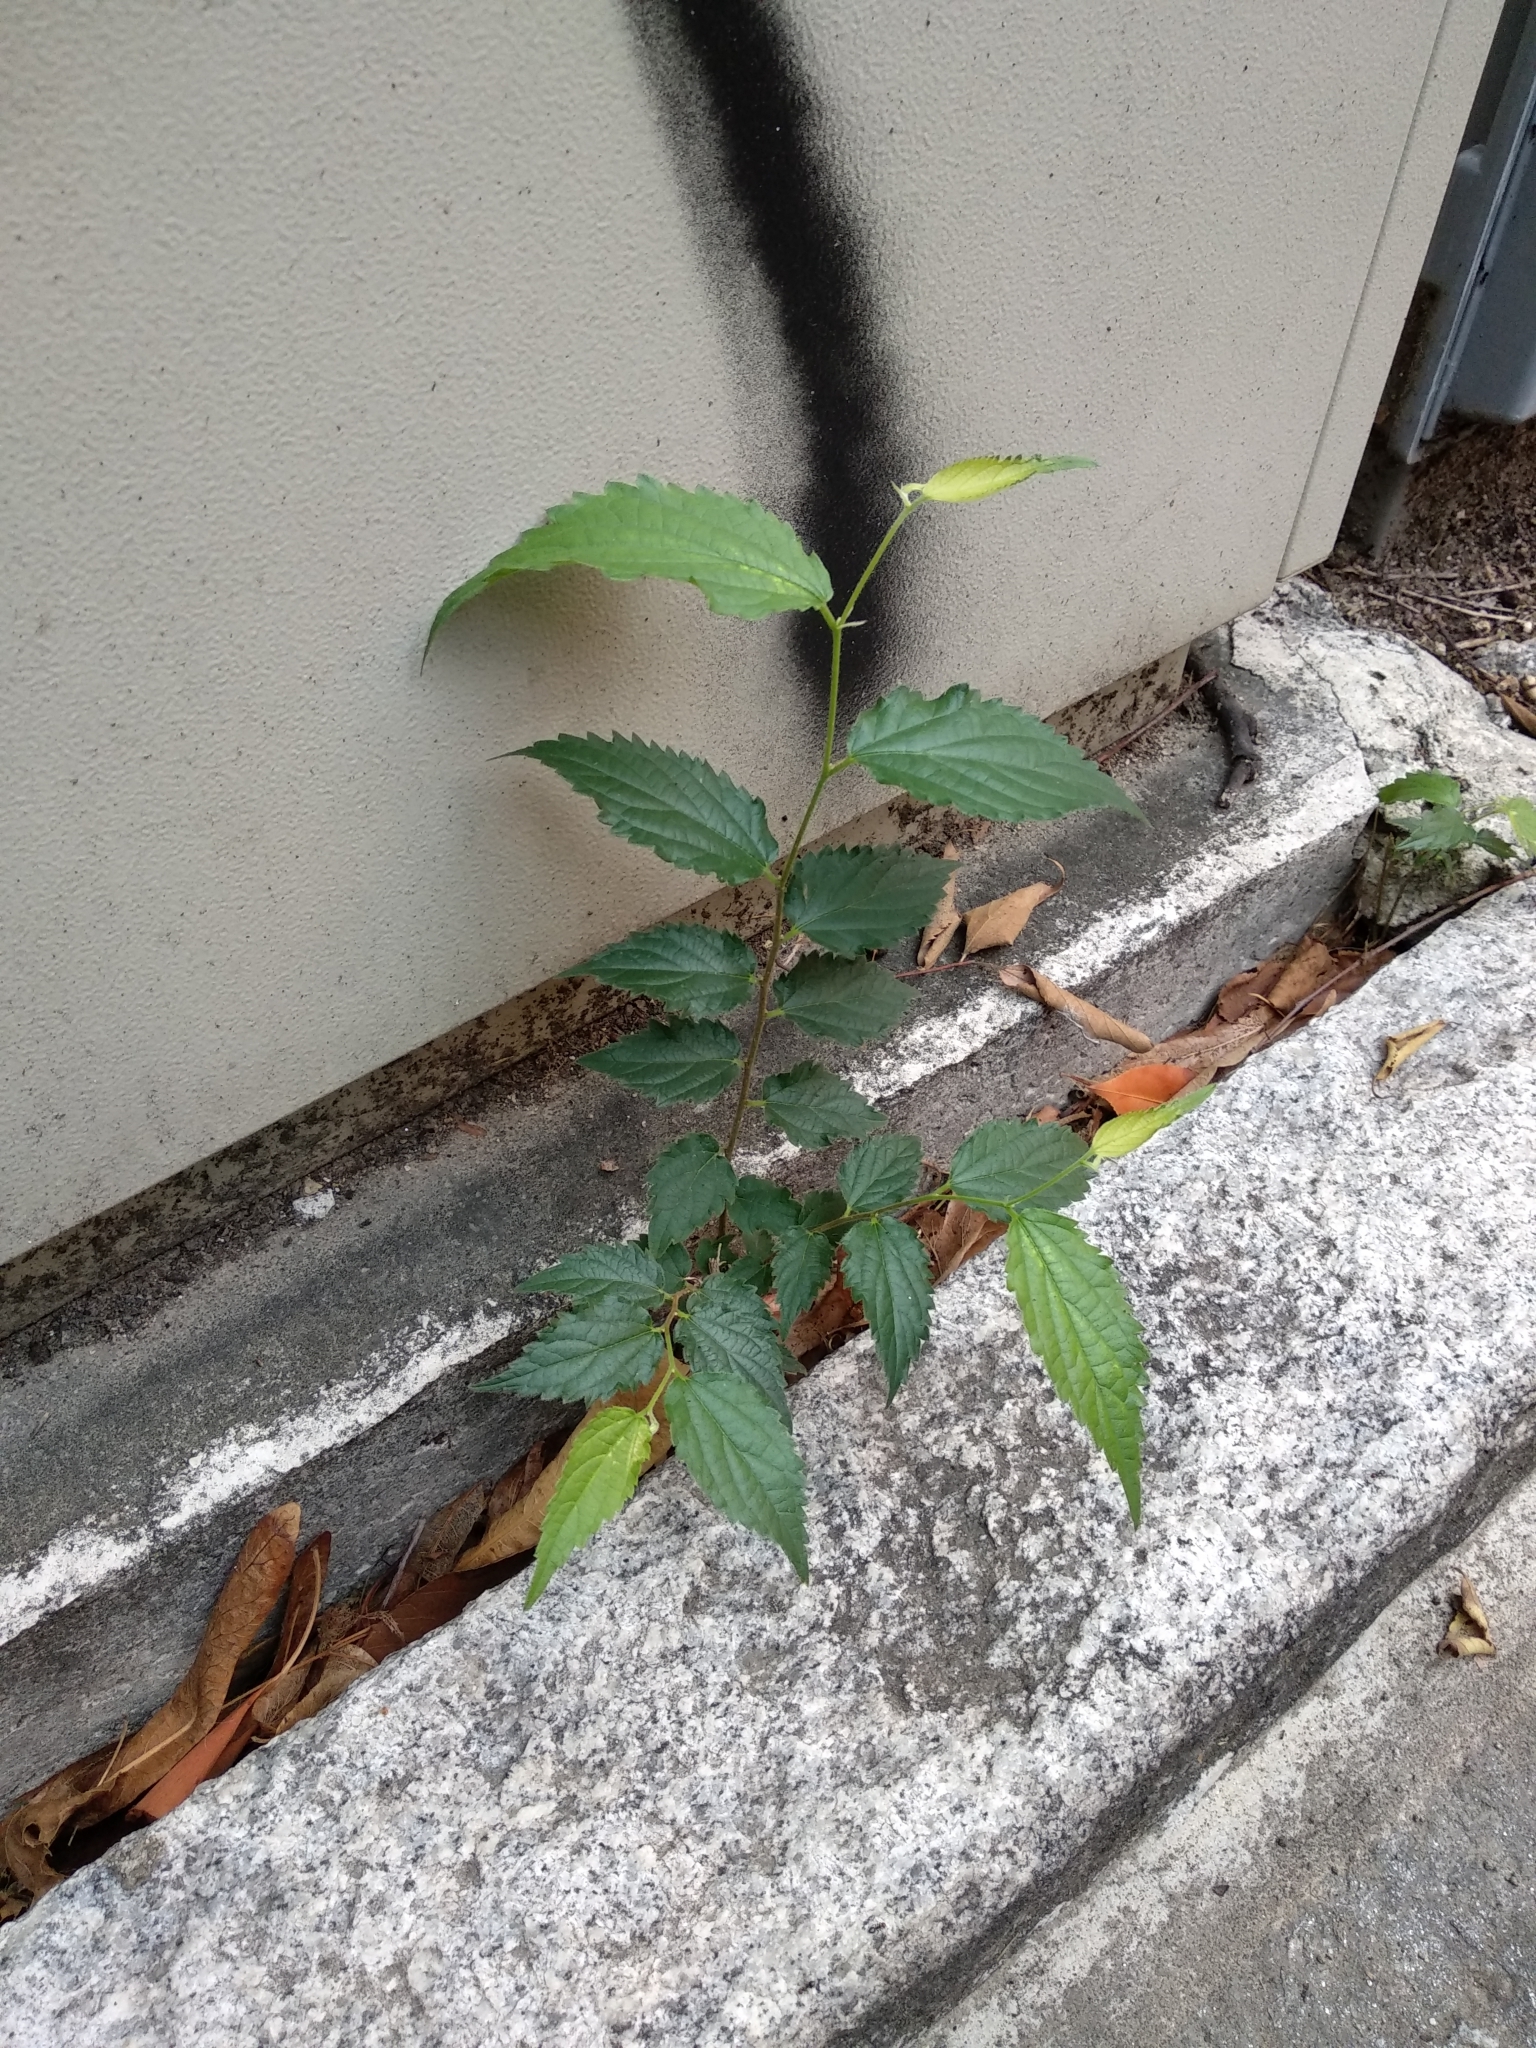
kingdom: Plantae
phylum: Tracheophyta
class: Magnoliopsida
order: Rosales
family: Cannabaceae
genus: Celtis
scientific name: Celtis australis
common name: European hackberry
